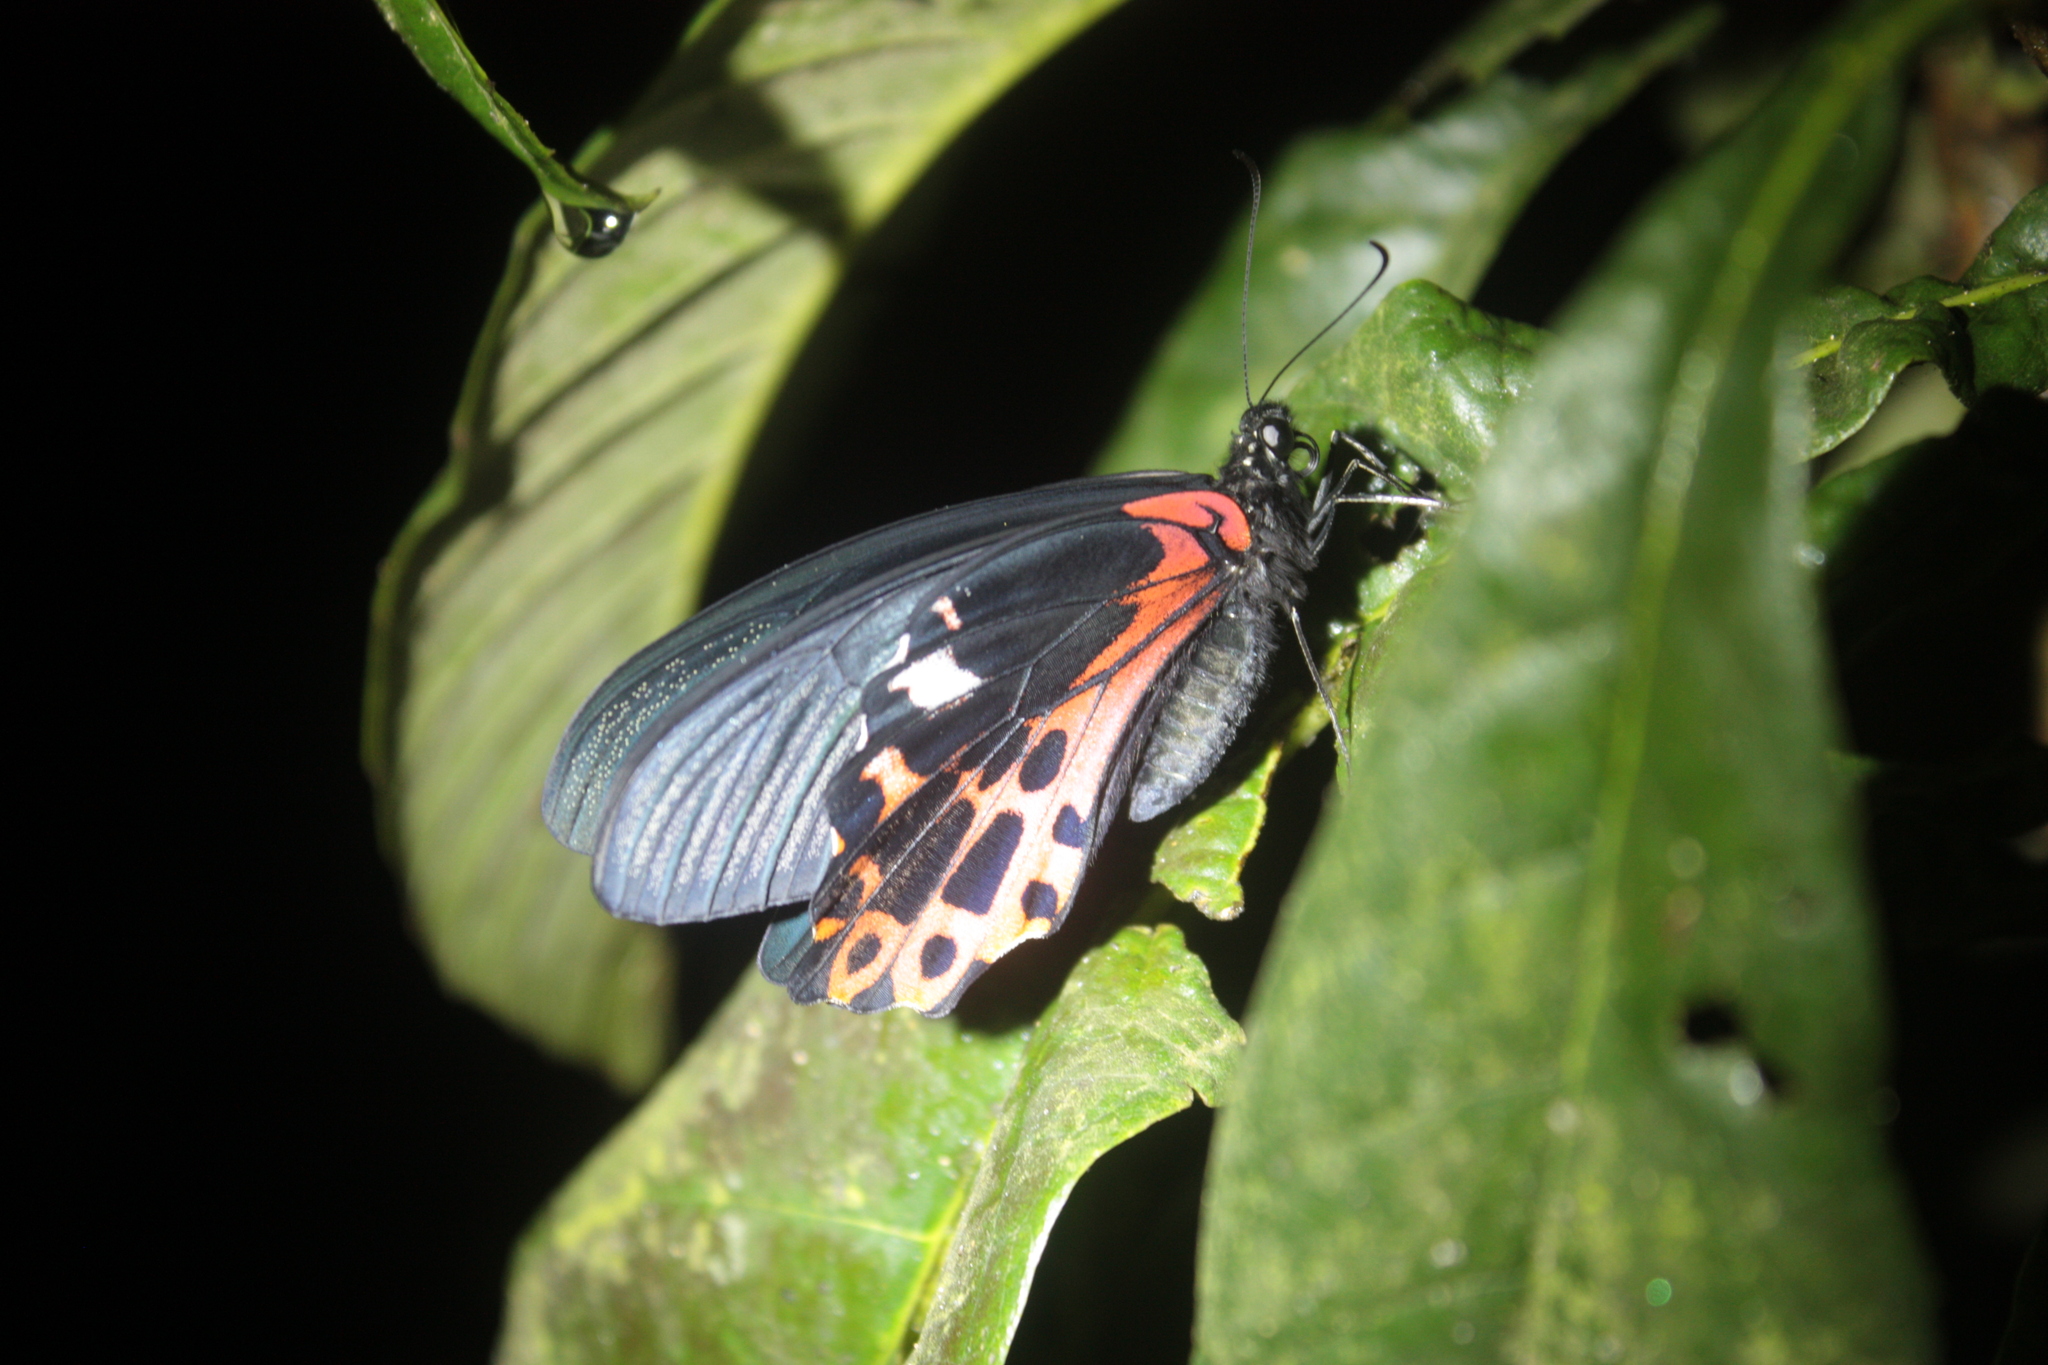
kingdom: Animalia
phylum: Arthropoda
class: Insecta
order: Lepidoptera
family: Papilionidae
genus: Papilio
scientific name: Papilio thaiwanus
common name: Formosan swallowtail
